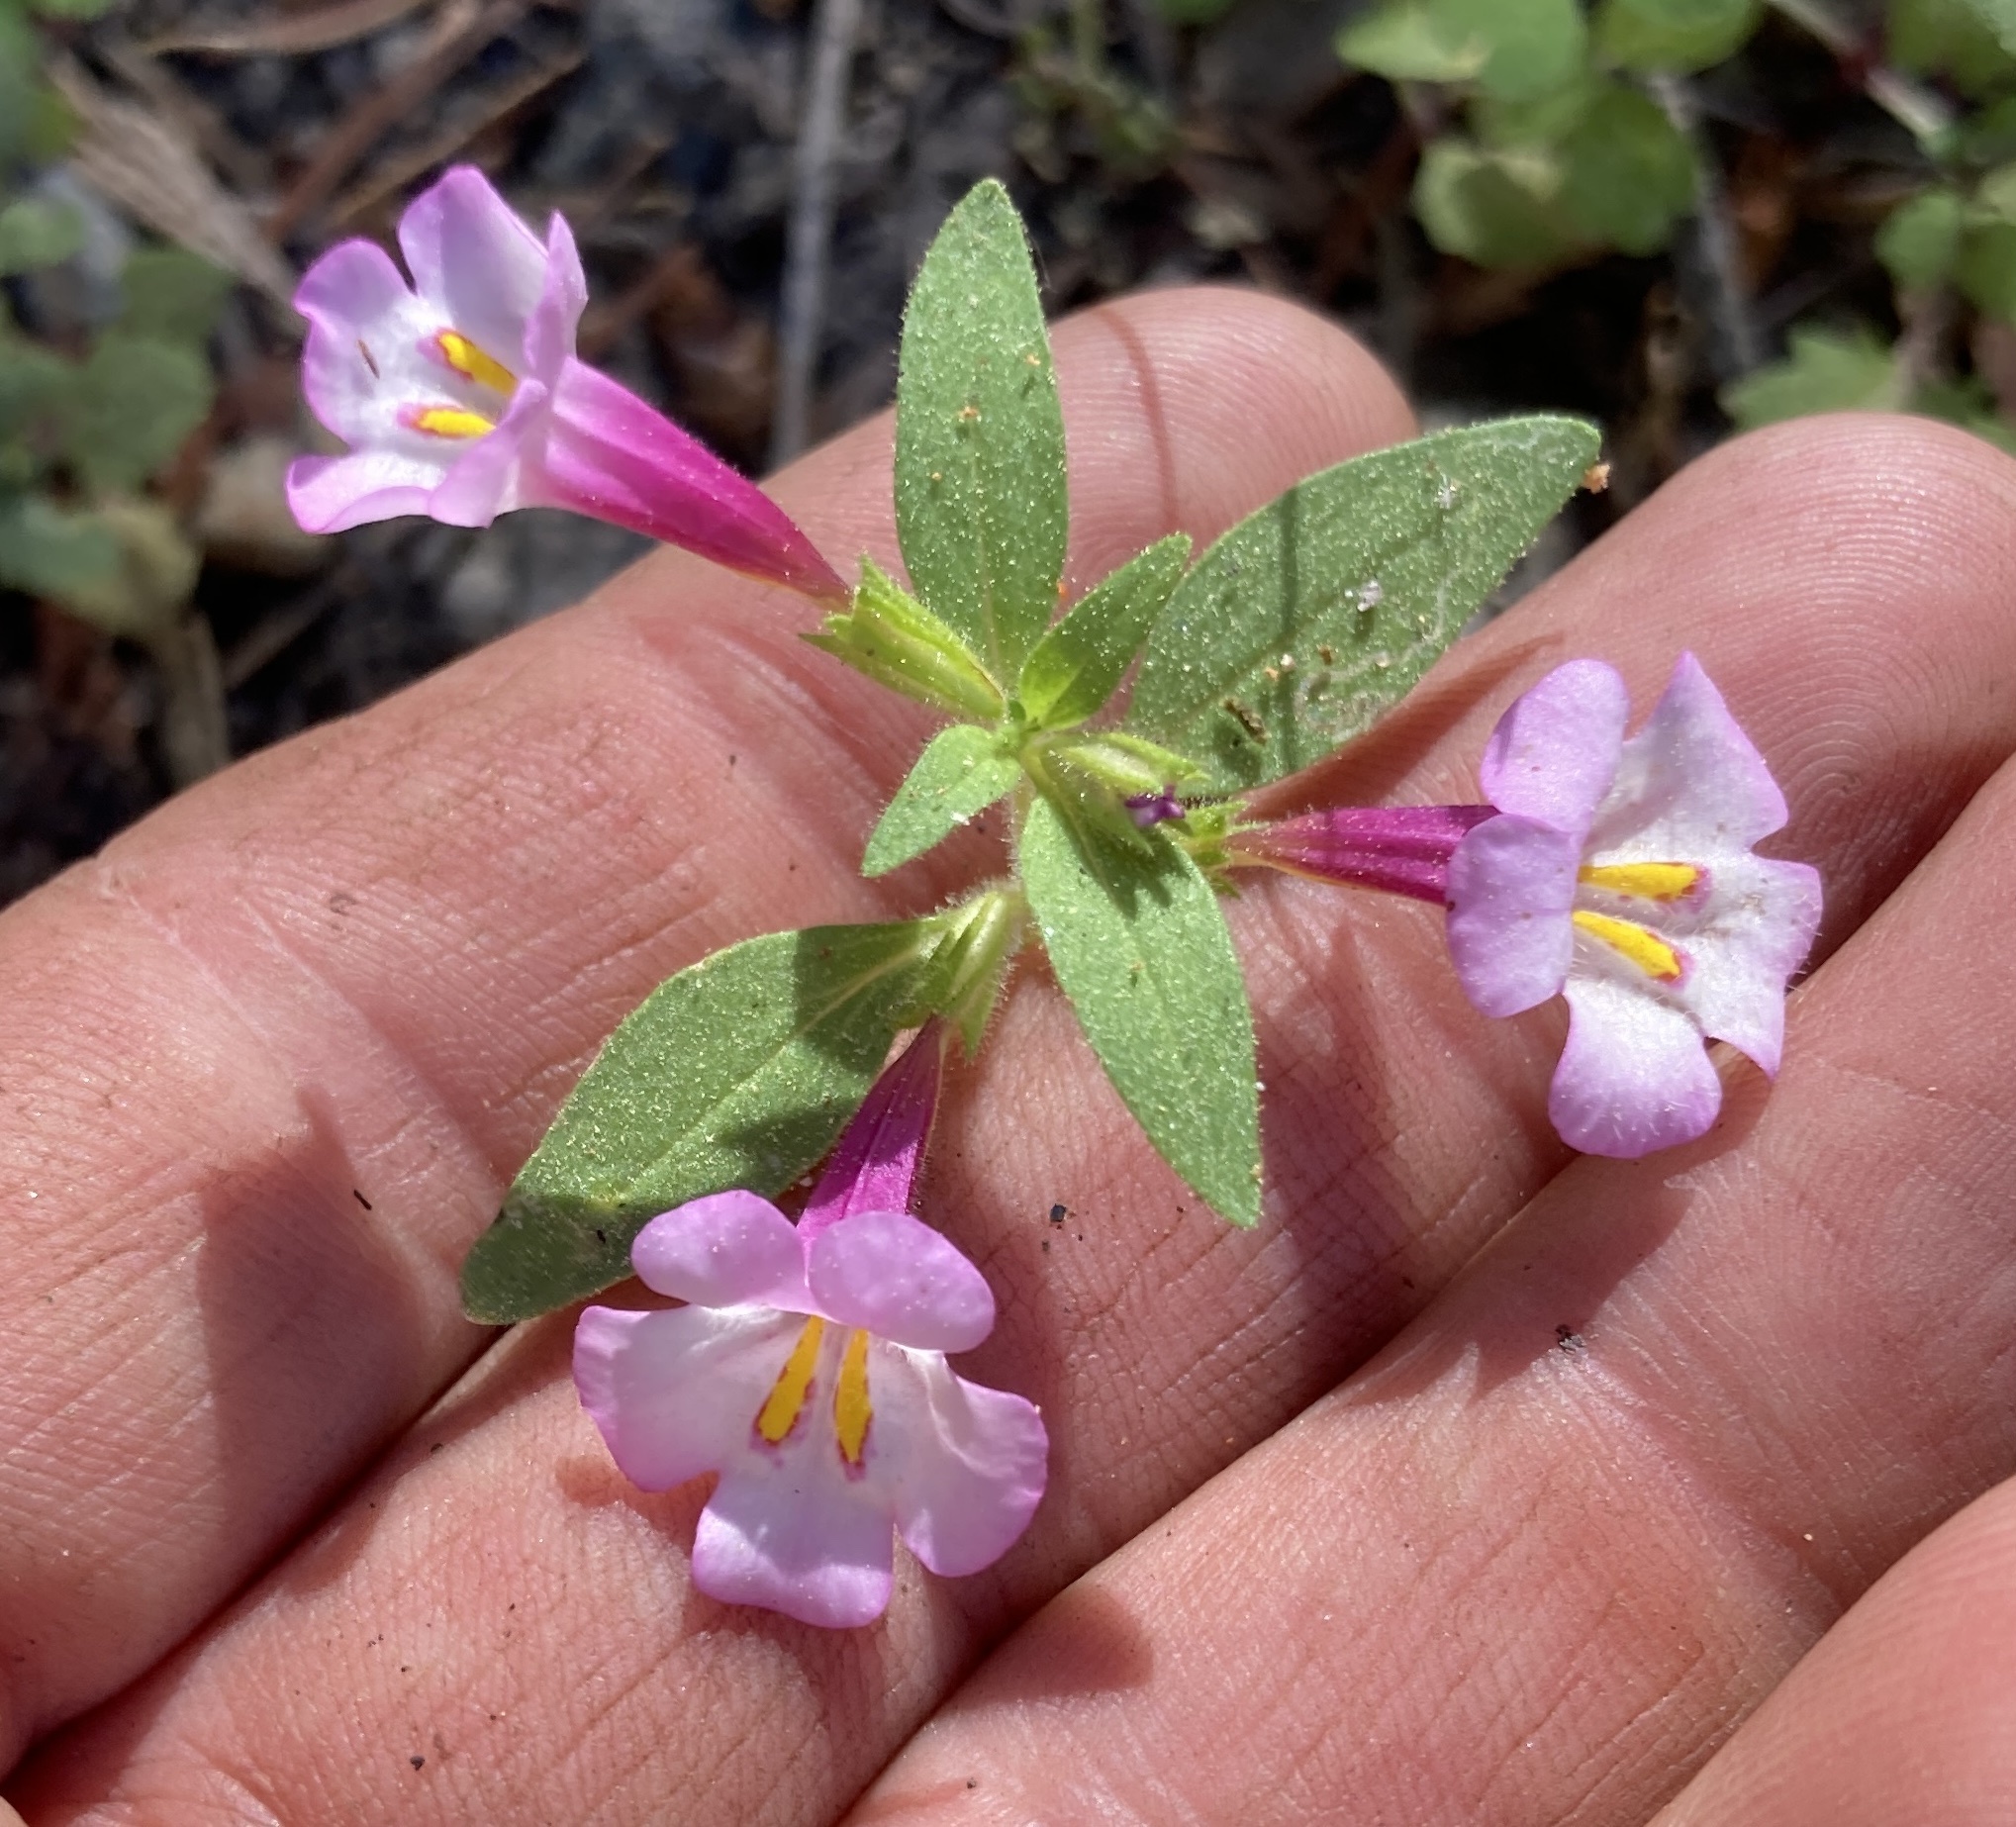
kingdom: Plantae
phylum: Tracheophyta
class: Magnoliopsida
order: Lamiales
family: Phrymaceae
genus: Diplacus
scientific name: Diplacus torreyi
